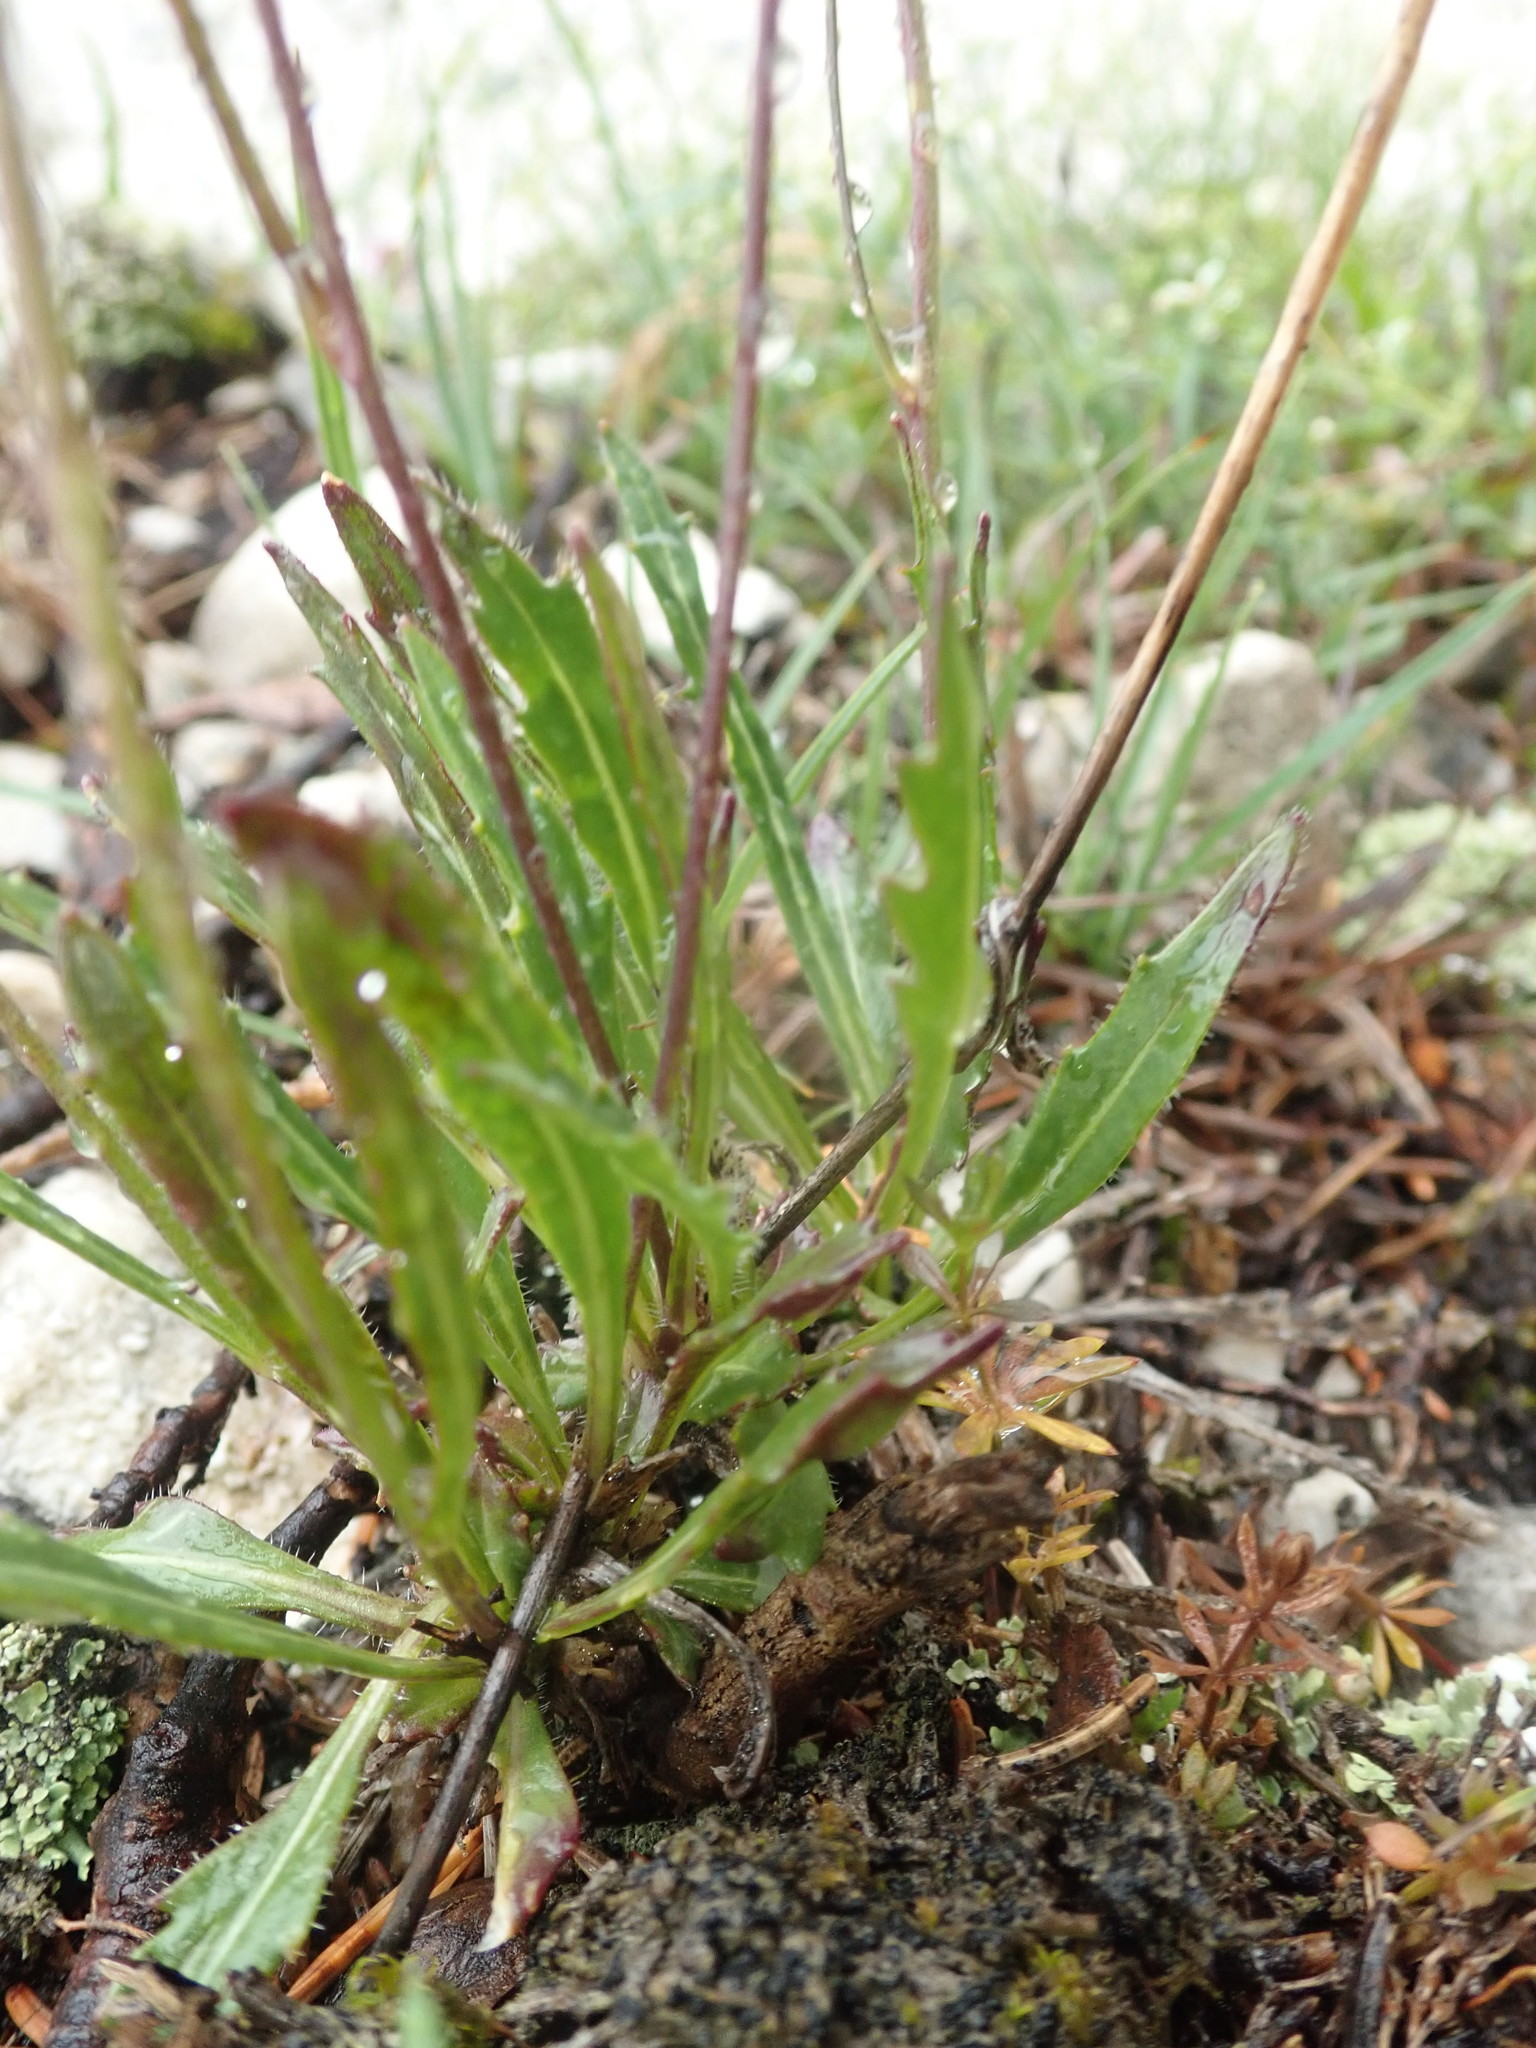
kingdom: Plantae
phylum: Tracheophyta
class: Magnoliopsida
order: Brassicales
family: Brassicaceae
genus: Biscutella
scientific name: Biscutella laevigata
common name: Buckler mustard
